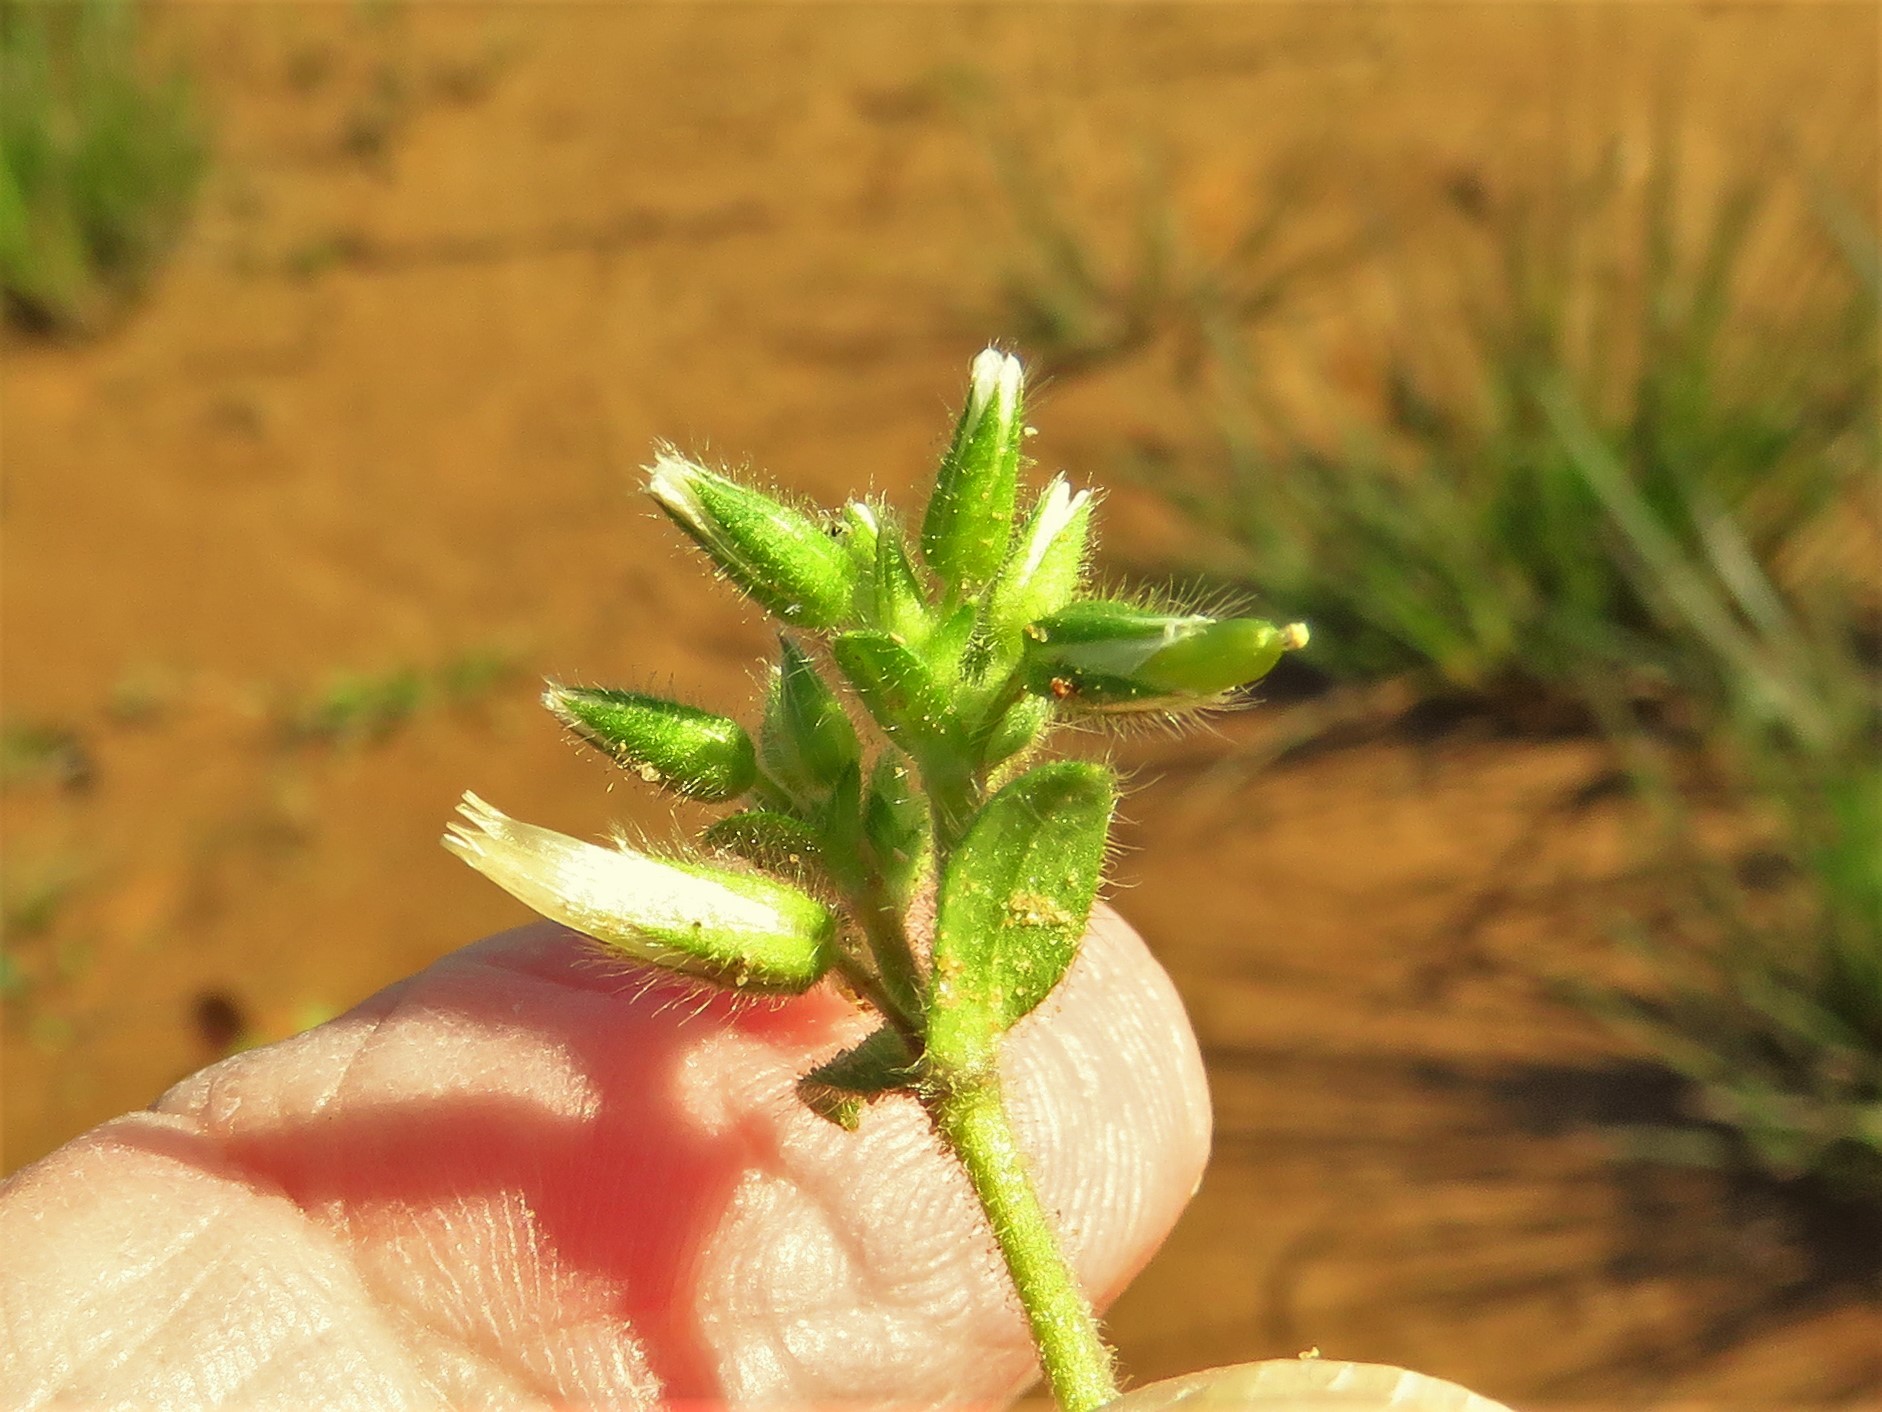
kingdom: Plantae
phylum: Tracheophyta
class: Magnoliopsida
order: Caryophyllales
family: Caryophyllaceae
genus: Cerastium
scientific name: Cerastium glomeratum
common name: Sticky chickweed
